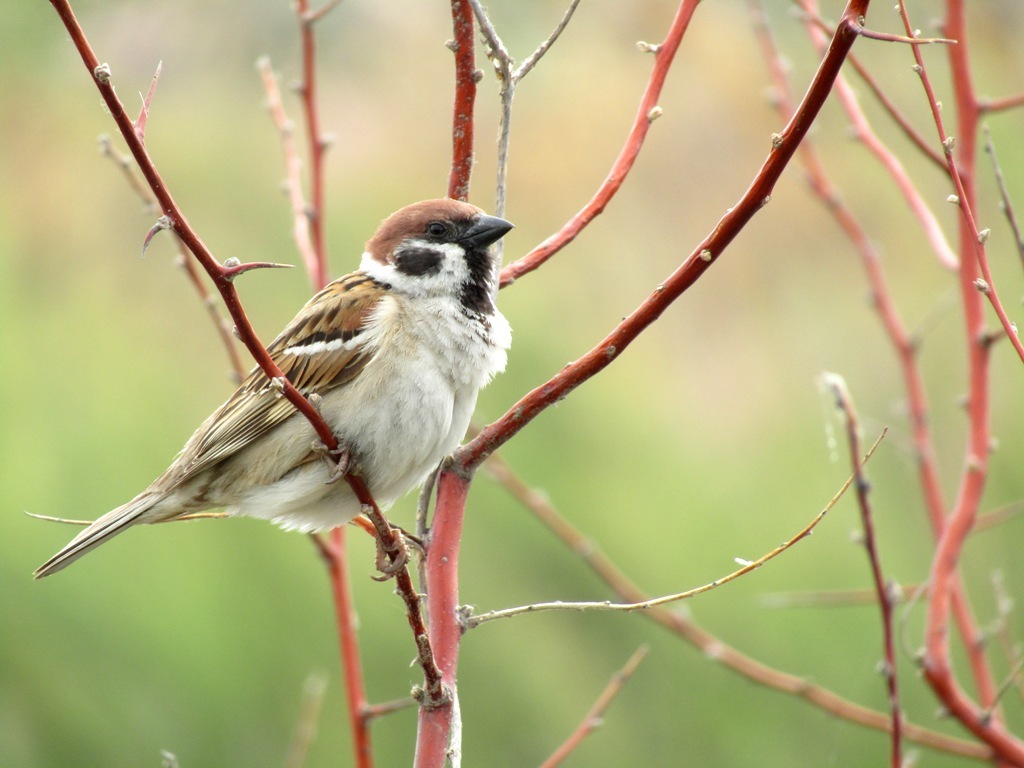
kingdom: Animalia
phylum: Chordata
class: Aves
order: Passeriformes
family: Passeridae
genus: Passer
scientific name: Passer montanus
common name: Eurasian tree sparrow
